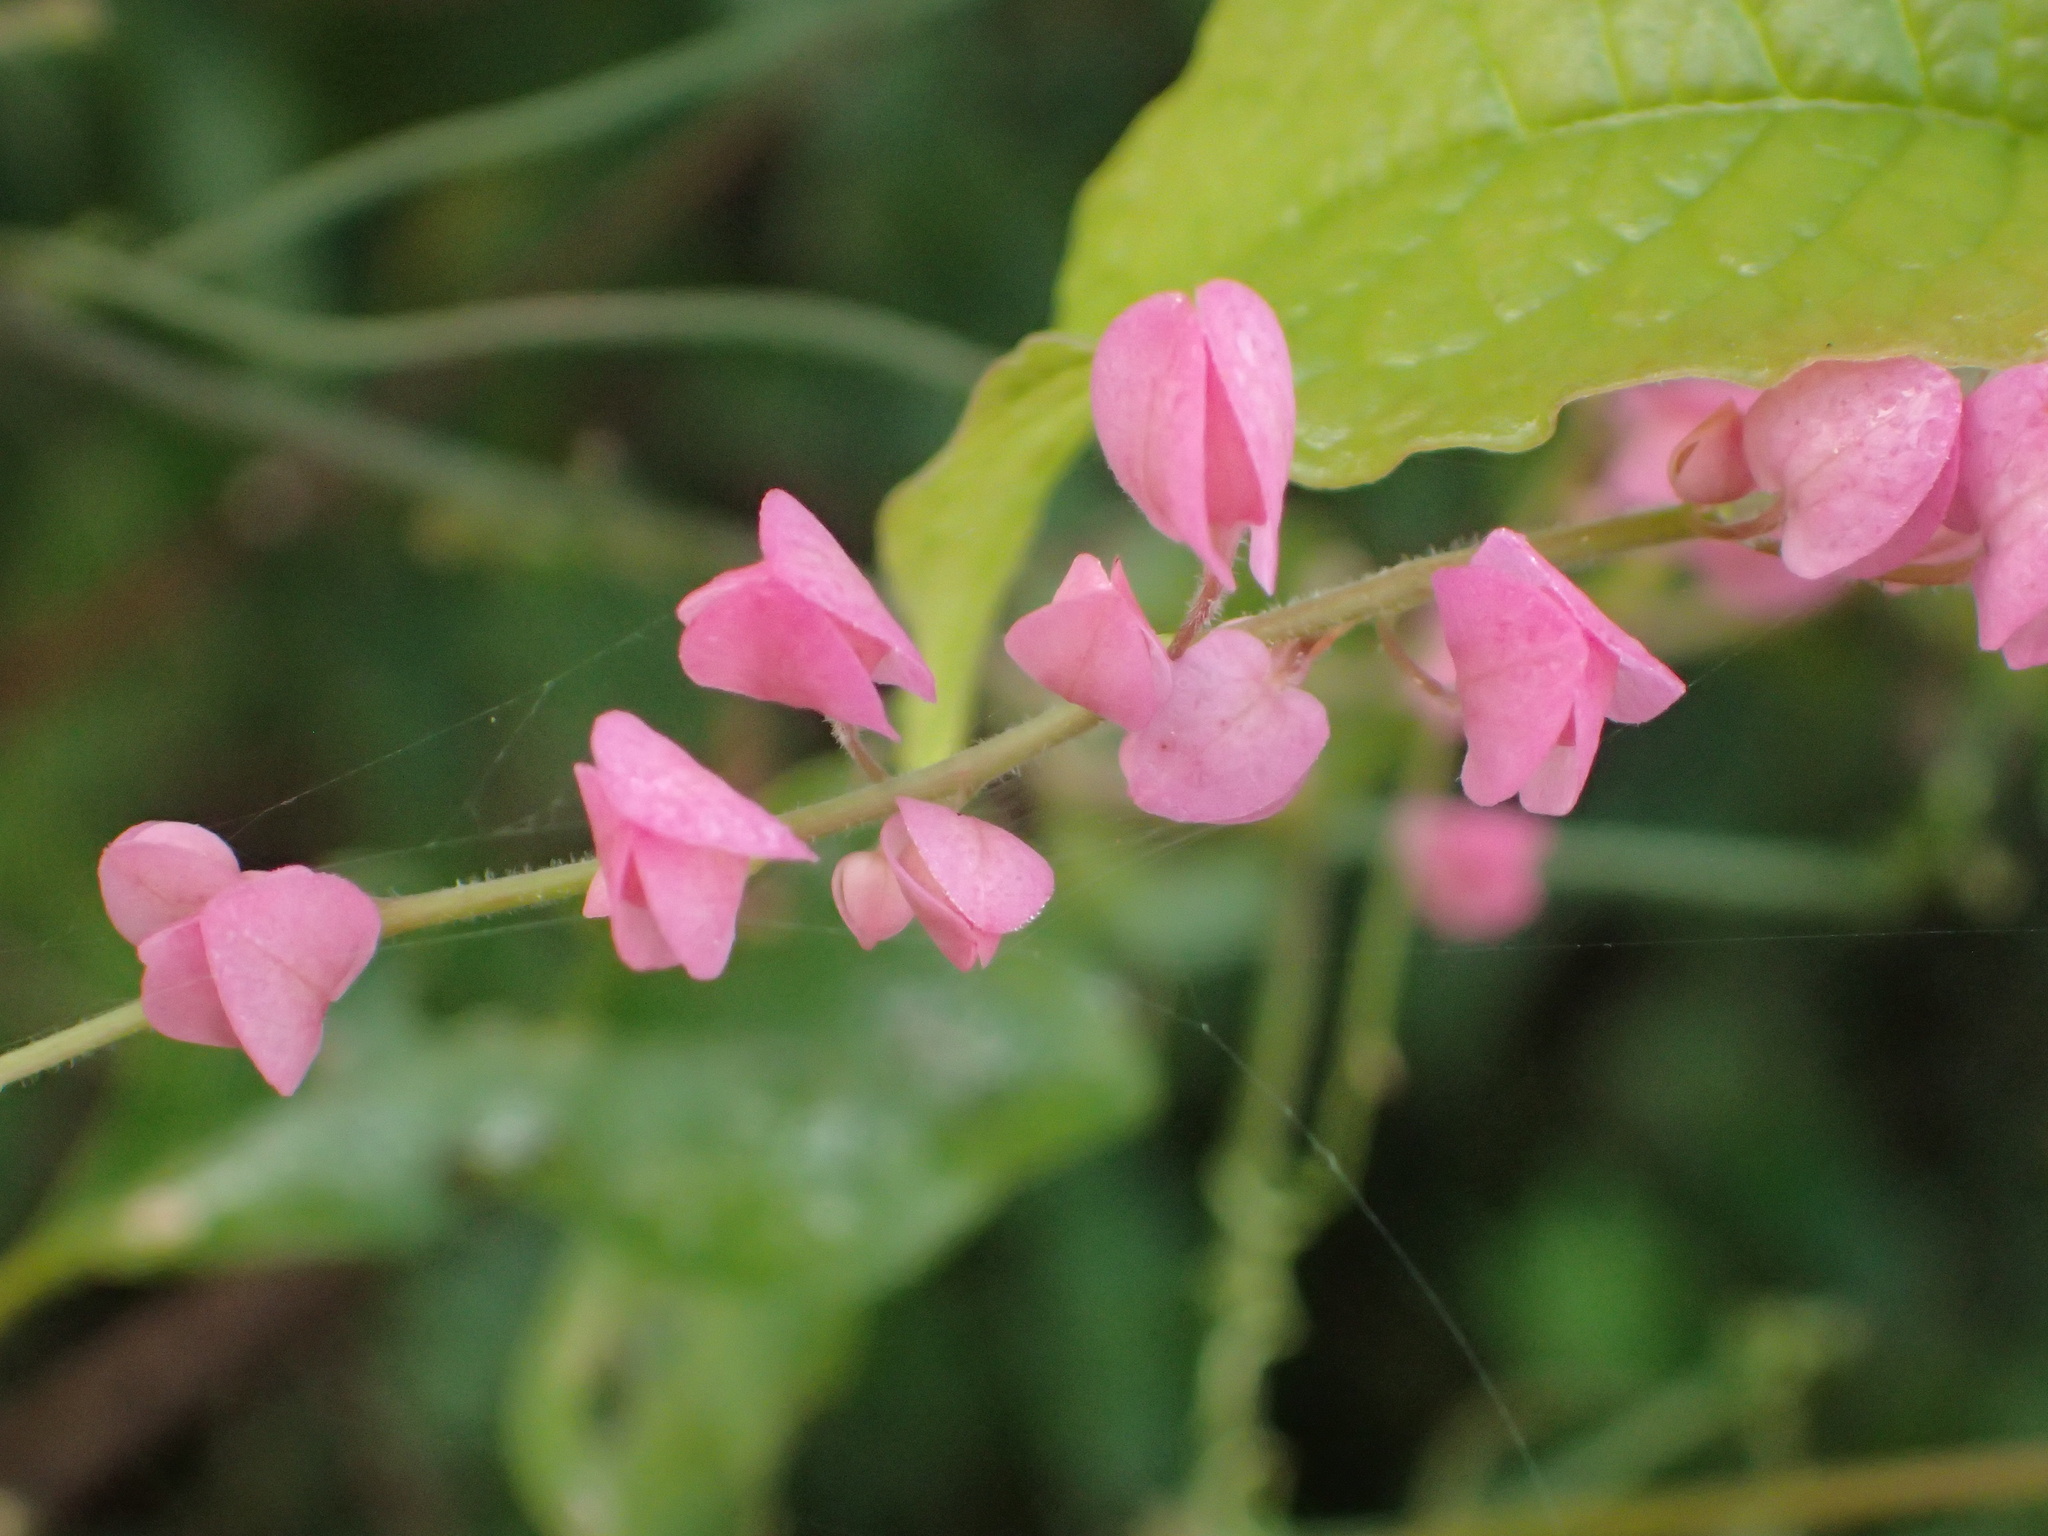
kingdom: Plantae
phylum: Tracheophyta
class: Magnoliopsida
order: Caryophyllales
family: Polygonaceae
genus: Antigonon
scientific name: Antigonon leptopus
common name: Coral vine
